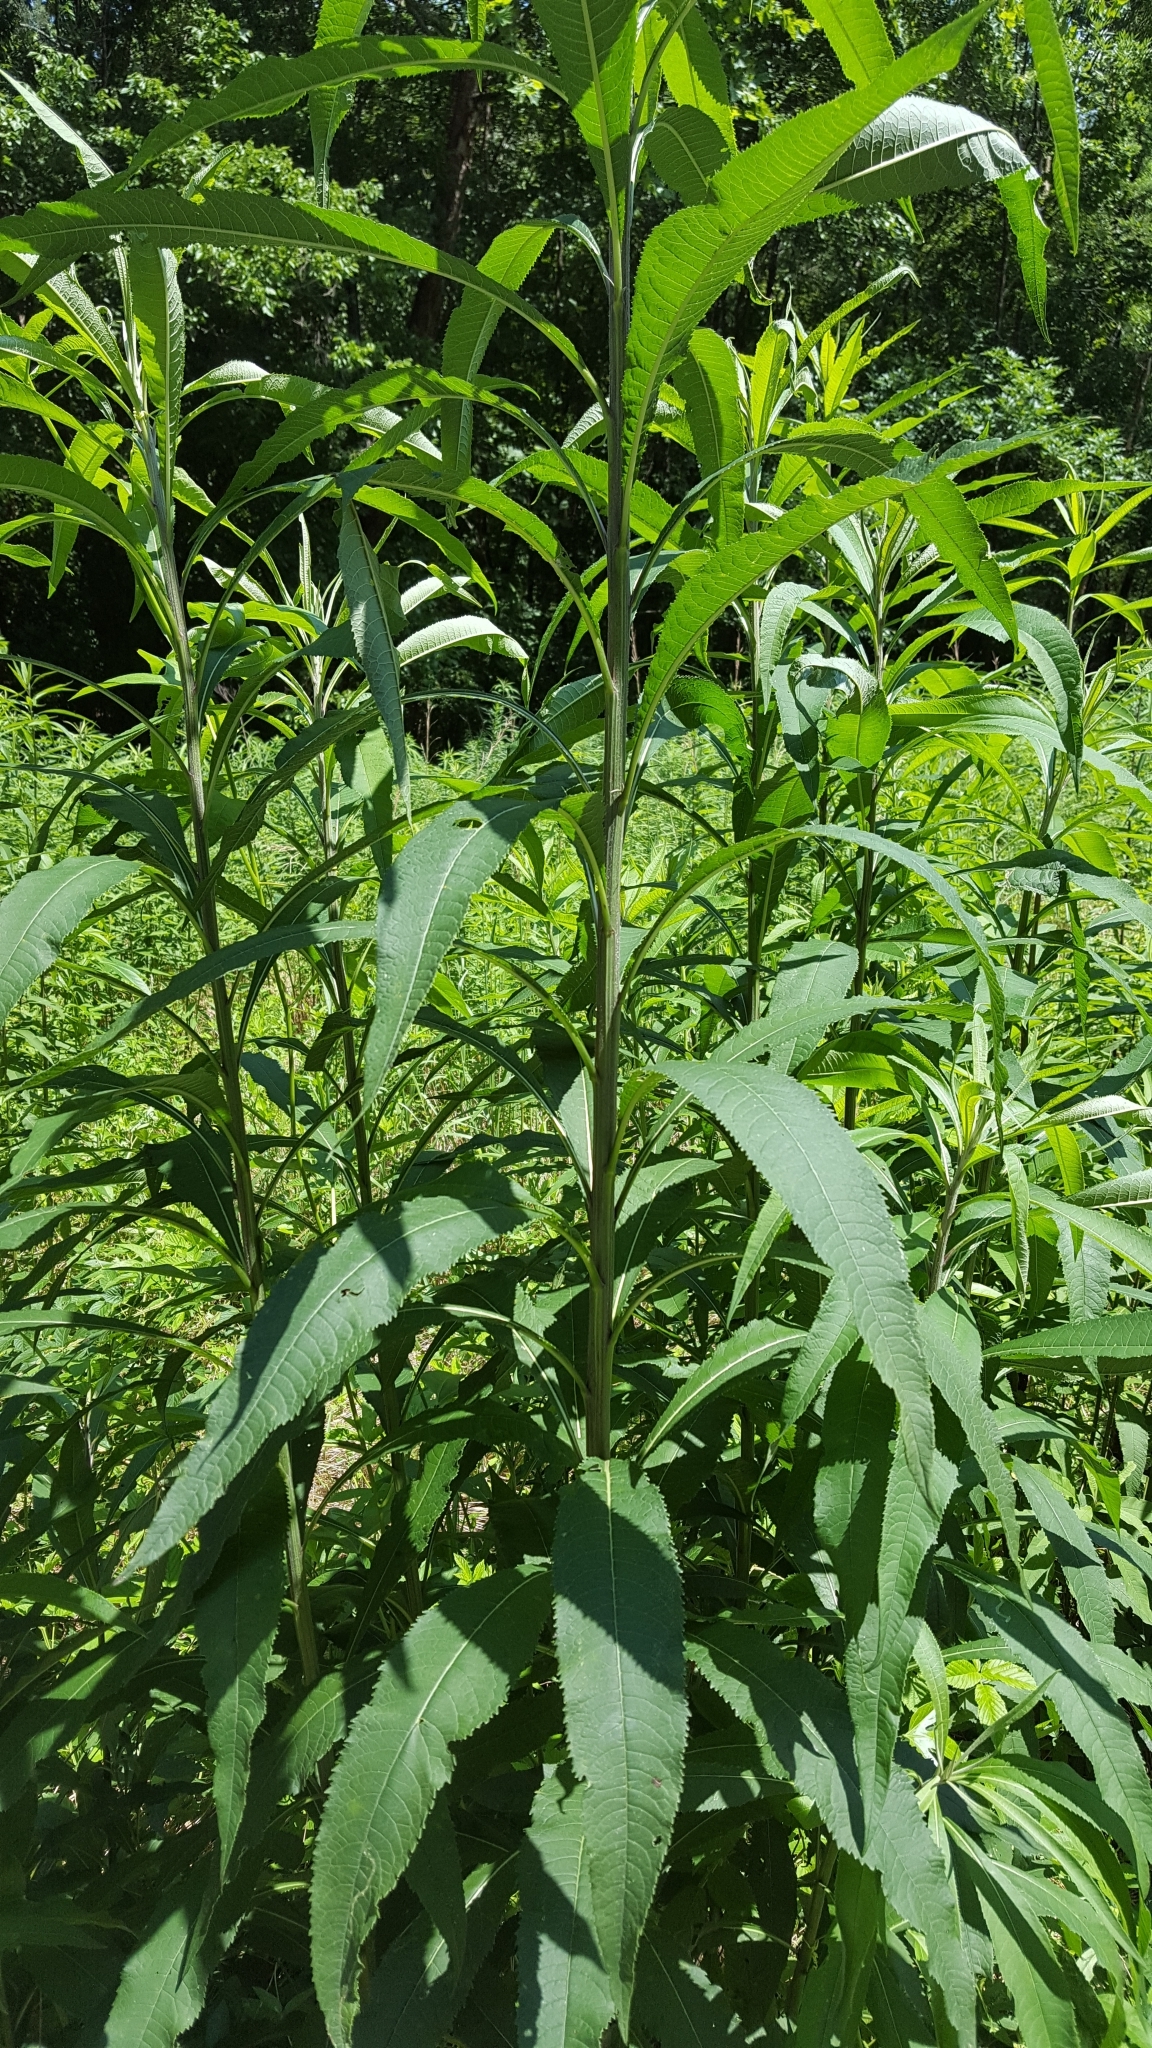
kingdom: Plantae
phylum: Tracheophyta
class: Magnoliopsida
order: Asterales
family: Asteraceae
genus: Vernonia
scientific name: Vernonia gigantea
